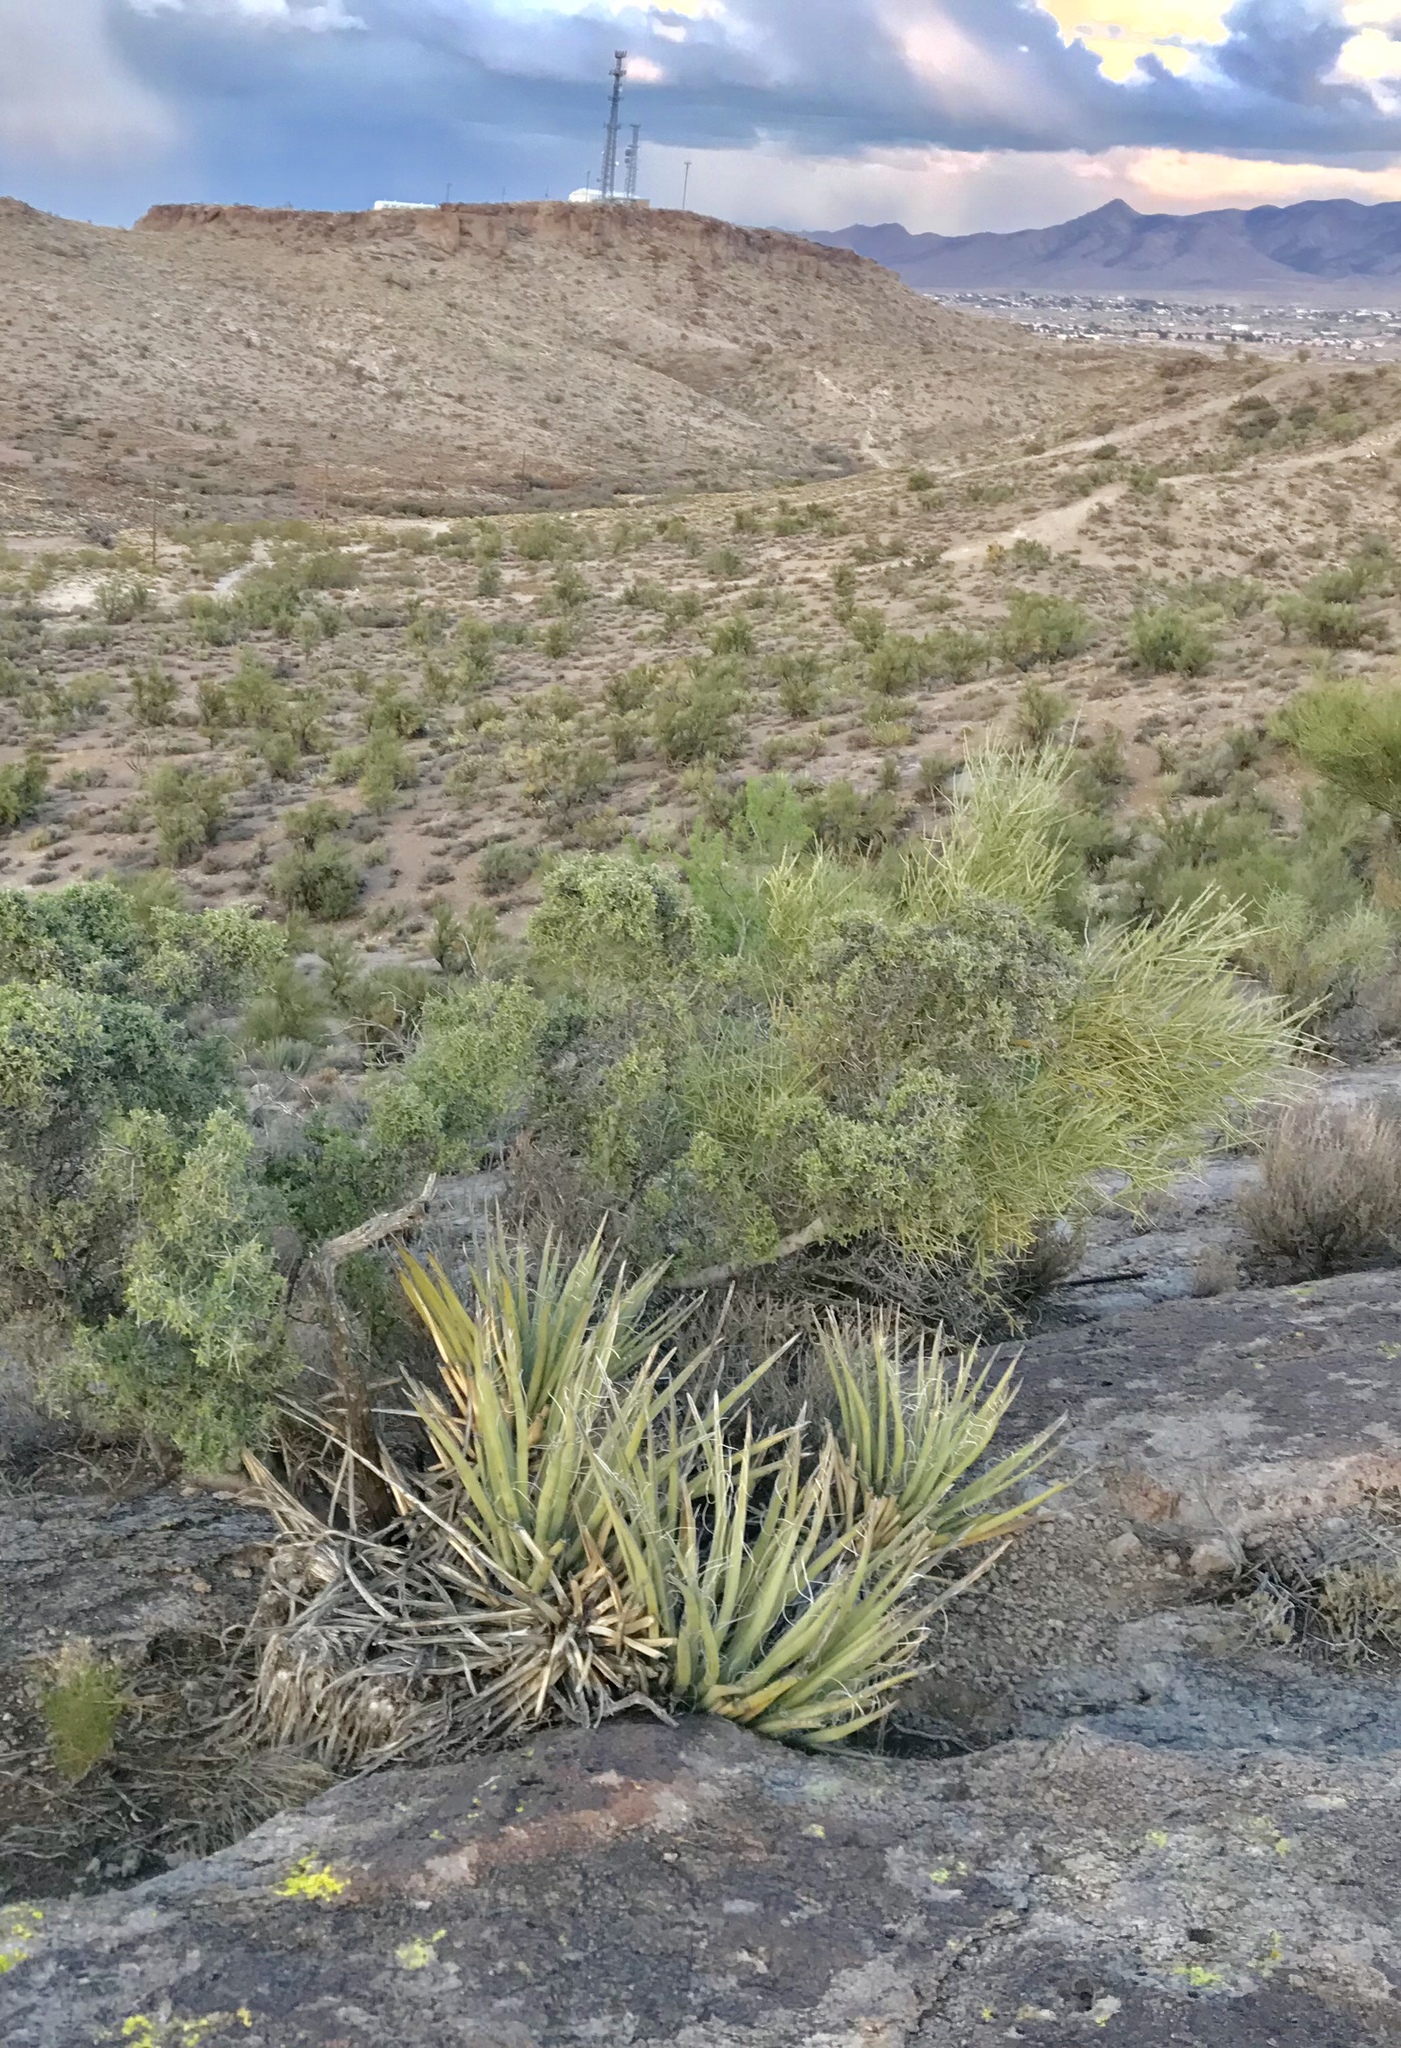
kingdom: Plantae
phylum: Tracheophyta
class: Liliopsida
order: Asparagales
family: Asparagaceae
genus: Yucca
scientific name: Yucca baccata
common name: Banana yucca
